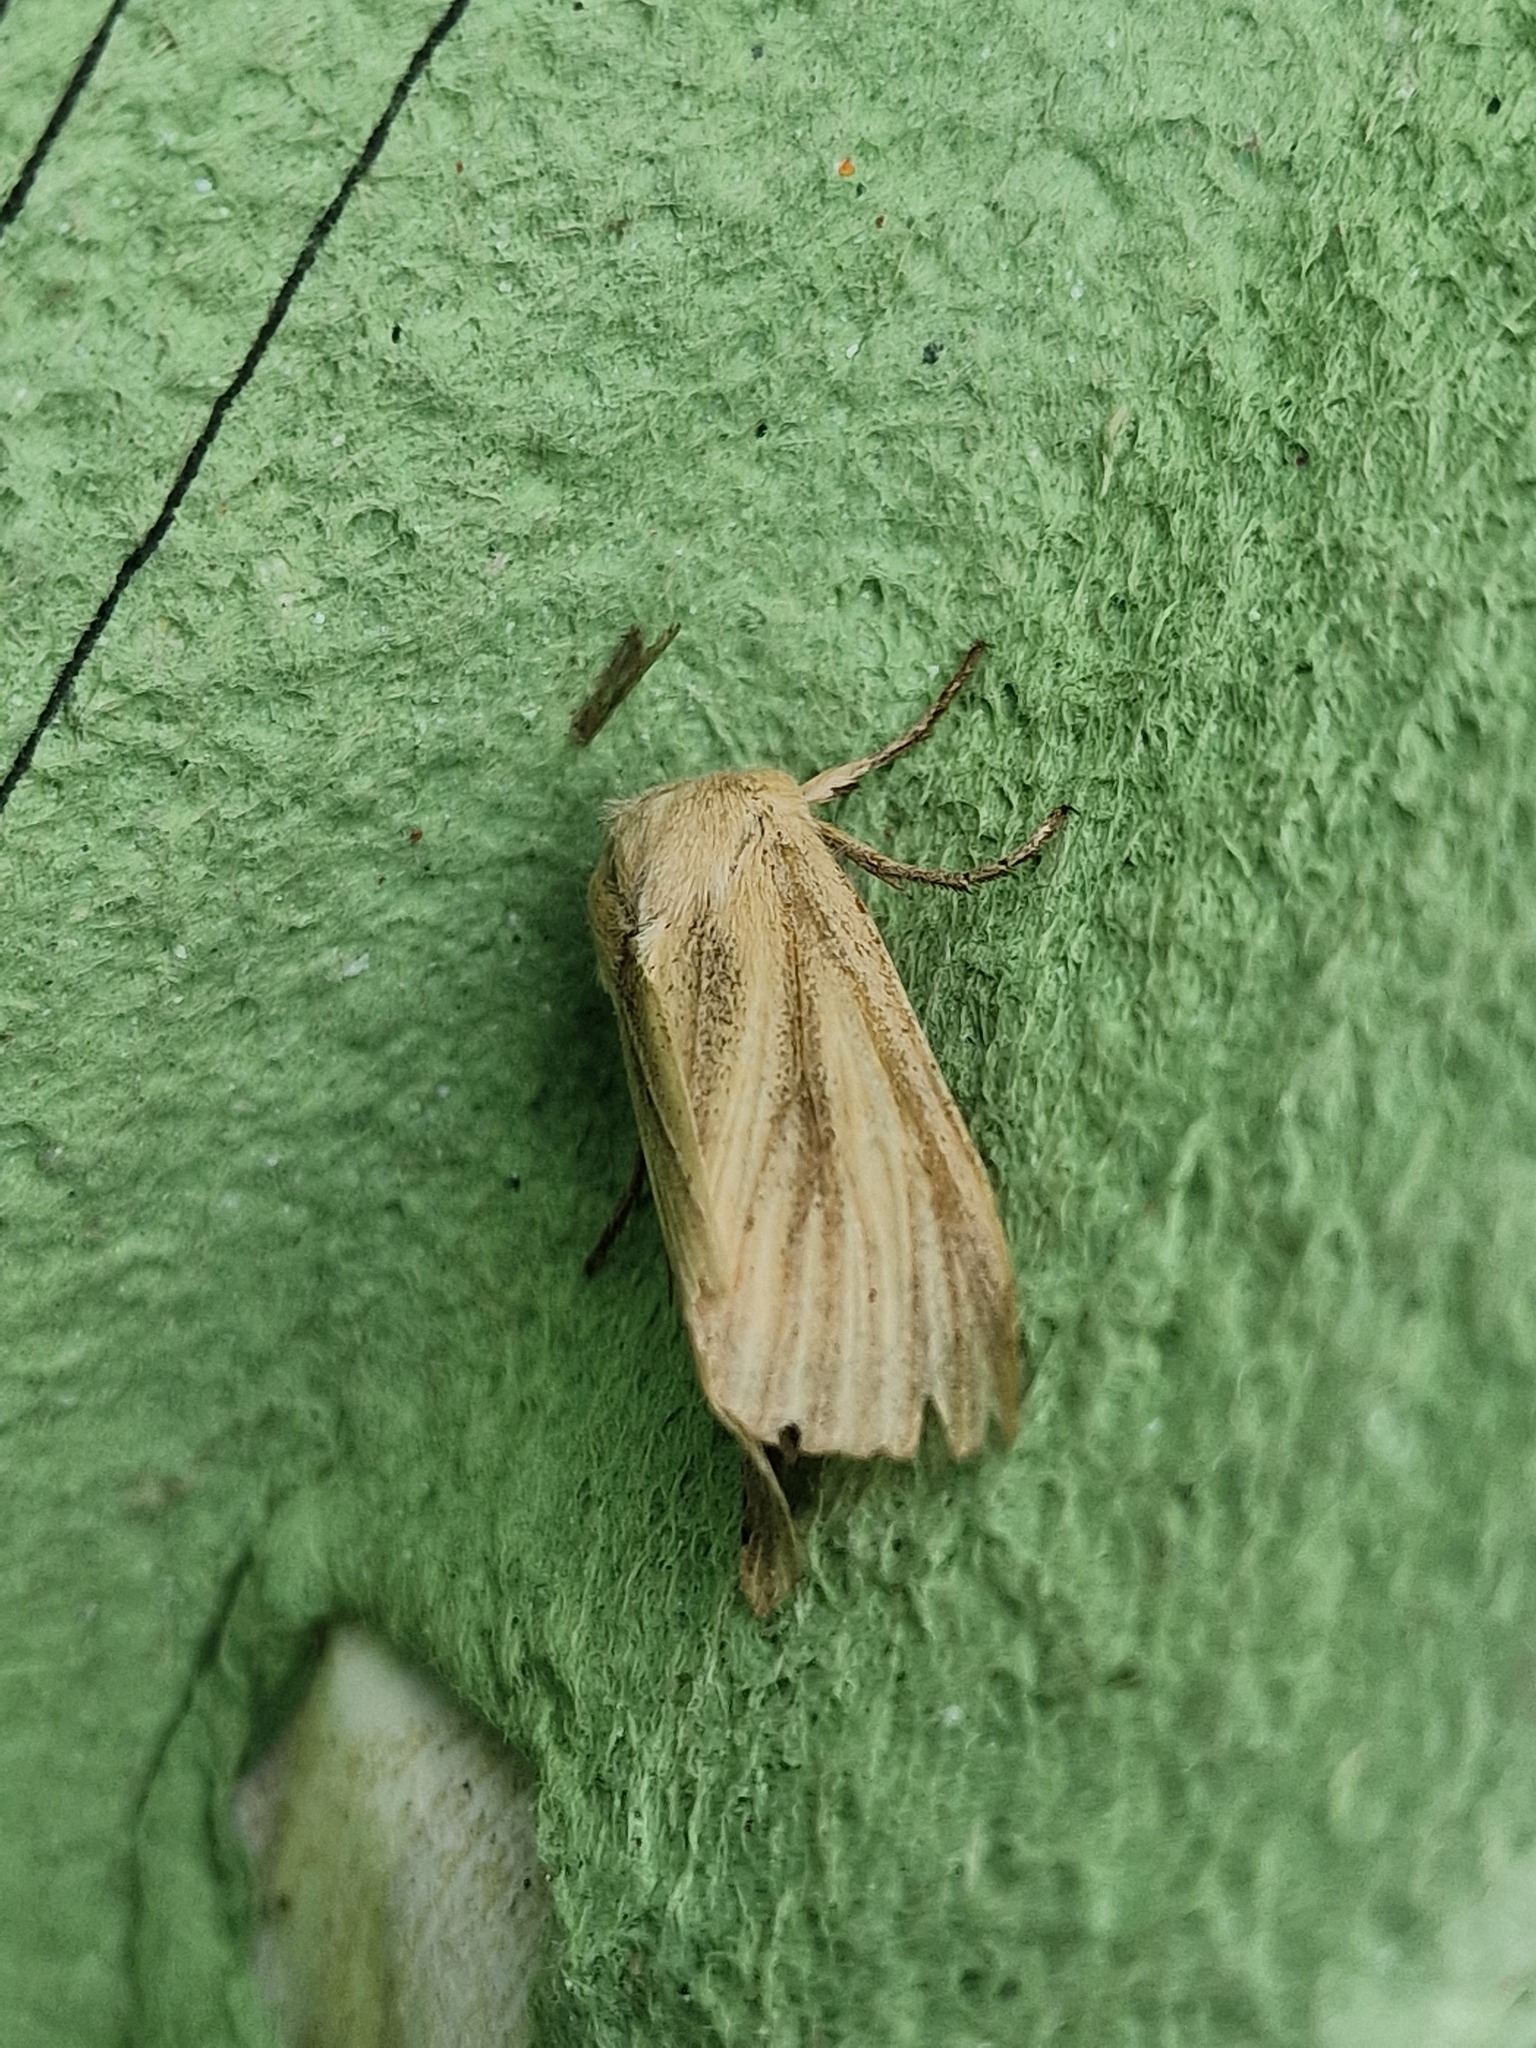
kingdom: Animalia
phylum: Arthropoda
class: Insecta
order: Lepidoptera
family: Noctuidae
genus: Rhizedra
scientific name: Rhizedra lutosa
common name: Large wainscot
